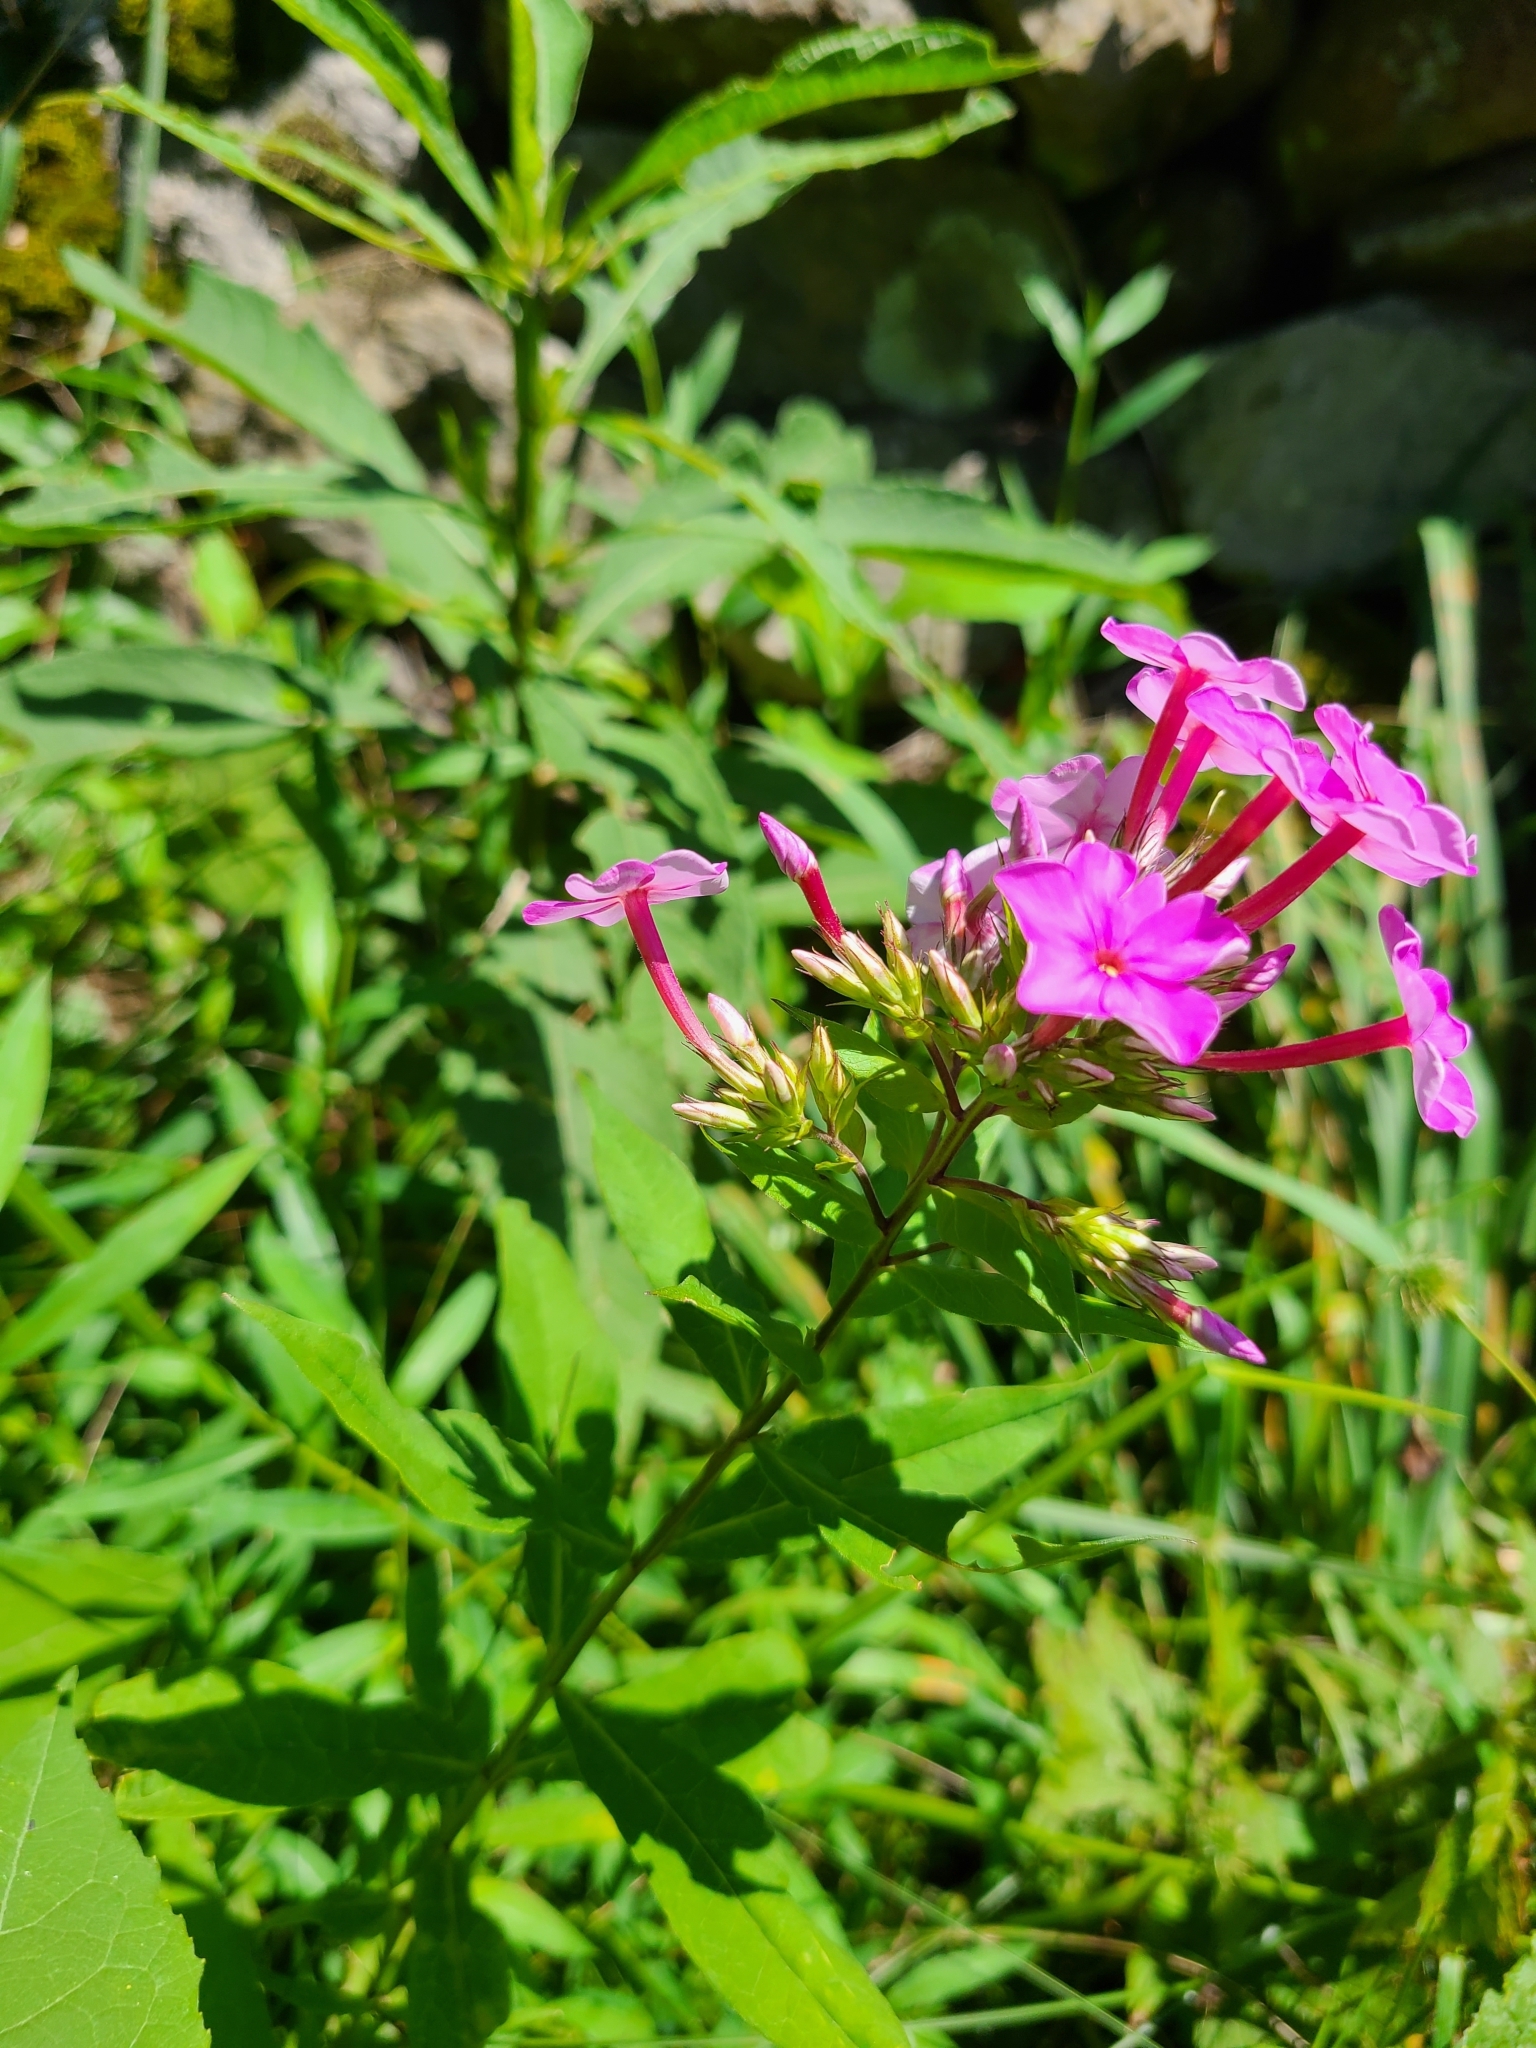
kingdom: Plantae
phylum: Tracheophyta
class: Magnoliopsida
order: Ericales
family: Polemoniaceae
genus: Phlox
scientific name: Phlox paniculata
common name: Fall phlox
